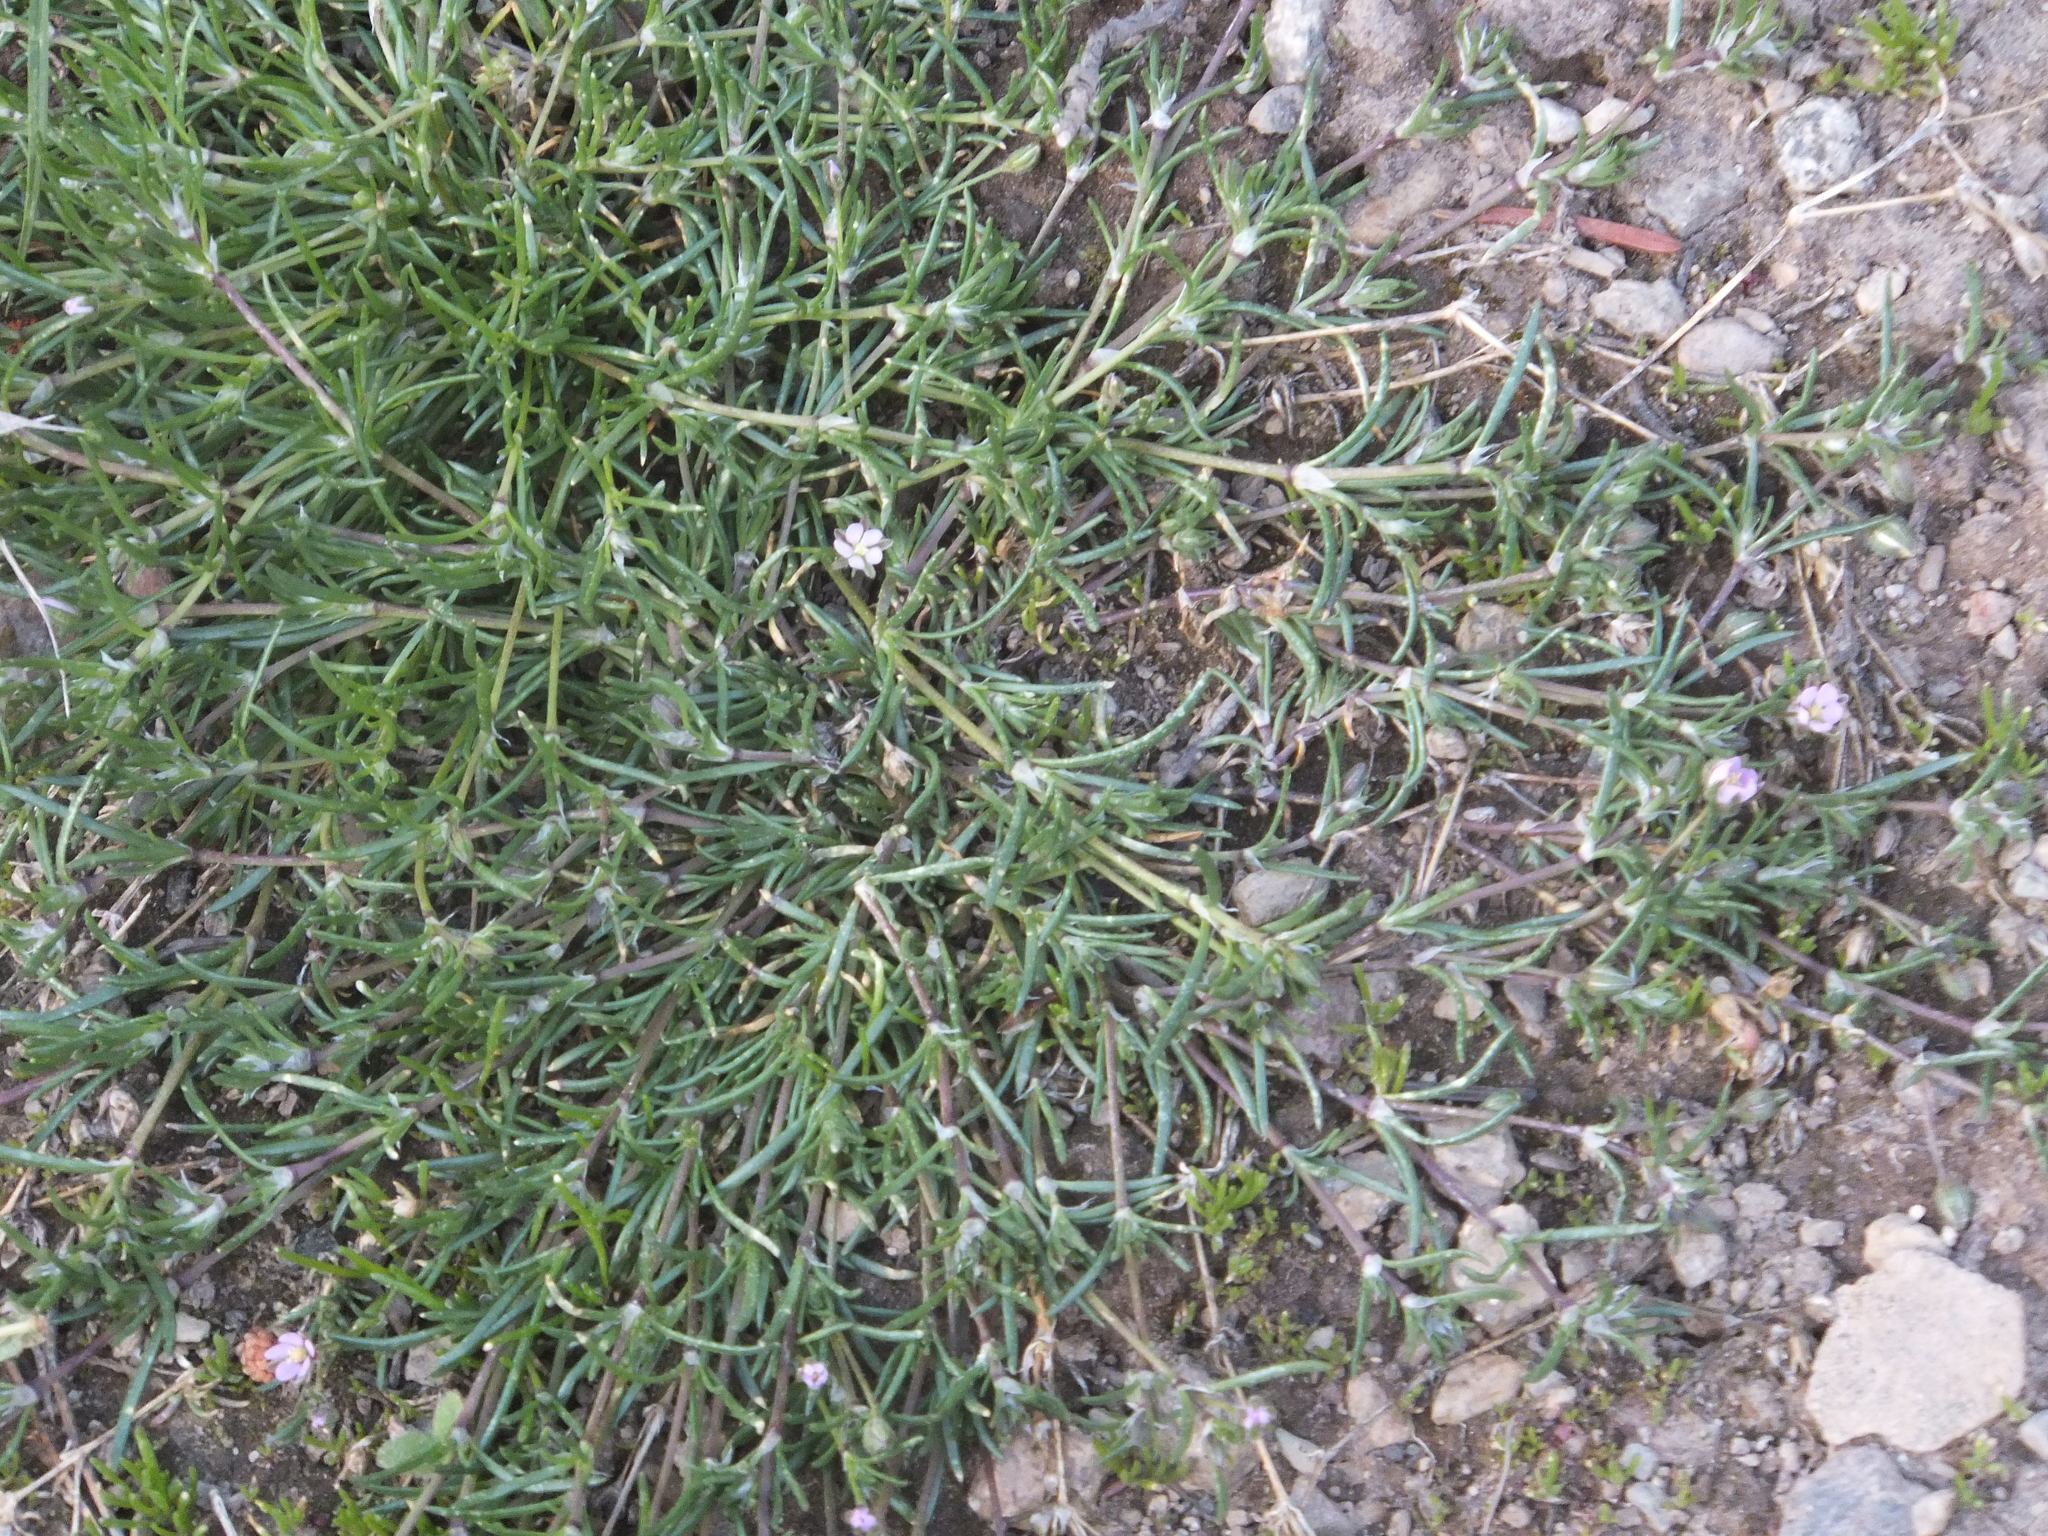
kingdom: Plantae
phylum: Tracheophyta
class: Magnoliopsida
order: Caryophyllales
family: Caryophyllaceae
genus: Spergularia
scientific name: Spergularia rubra
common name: Red sand-spurrey
